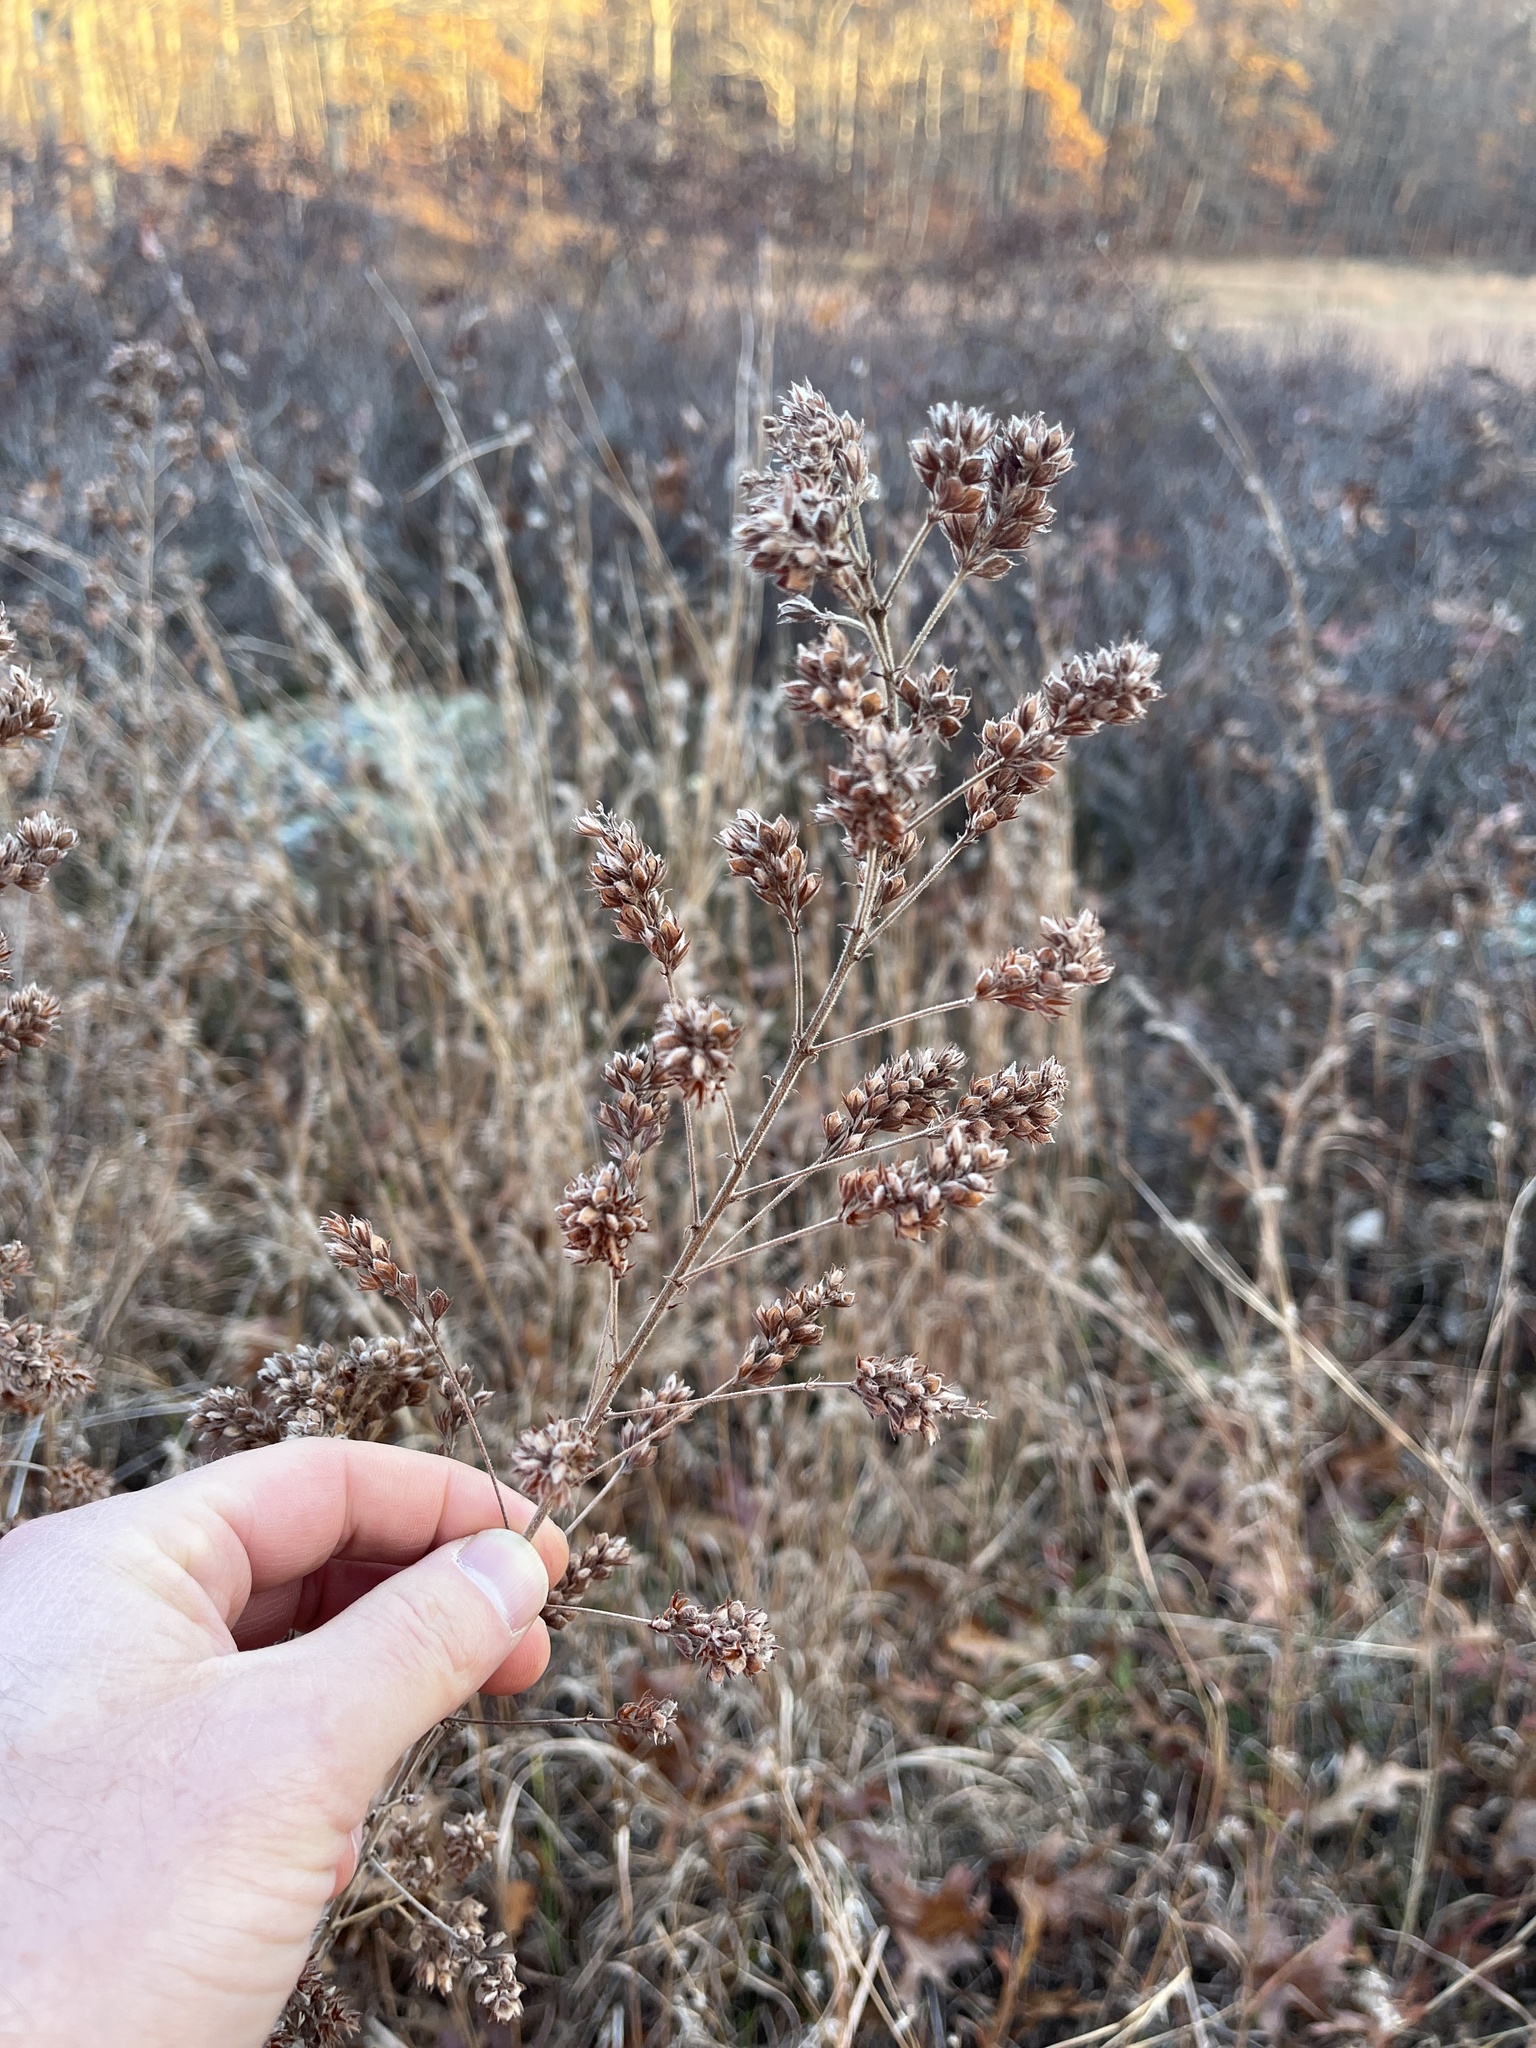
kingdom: Plantae
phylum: Tracheophyta
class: Magnoliopsida
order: Fabales
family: Fabaceae
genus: Lespedeza
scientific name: Lespedeza hirta
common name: Hairy lespedeza
